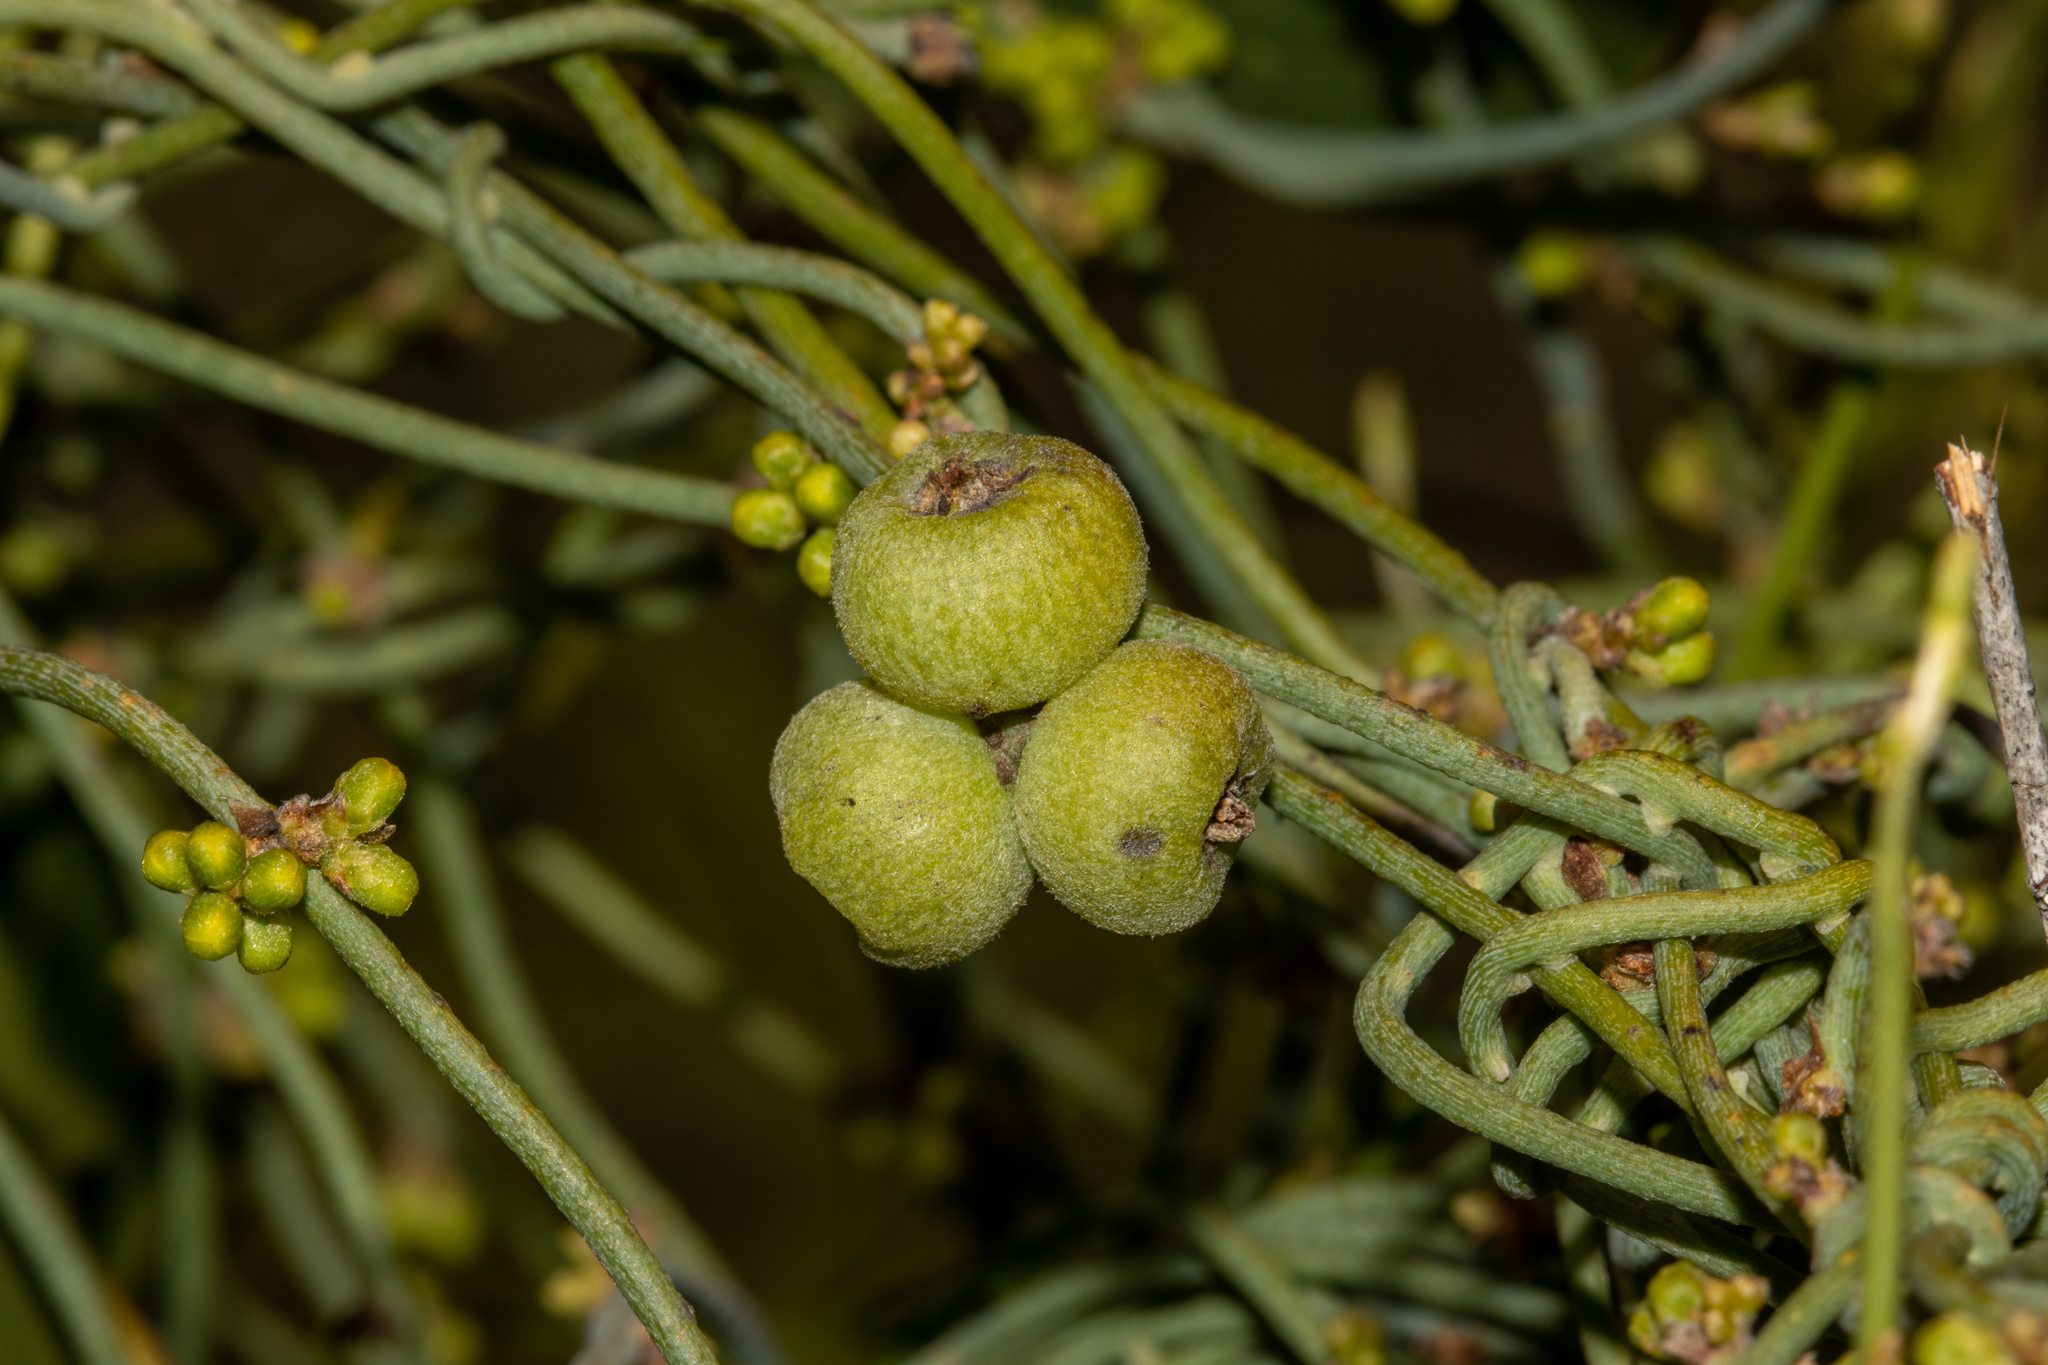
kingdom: Plantae
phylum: Tracheophyta
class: Magnoliopsida
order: Laurales
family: Lauraceae
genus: Cassytha
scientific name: Cassytha pubescens
